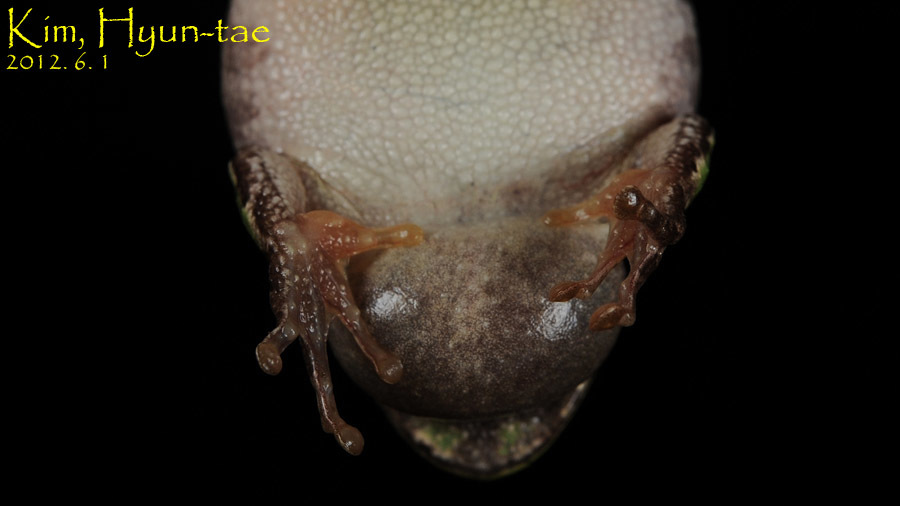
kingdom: Animalia
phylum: Chordata
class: Amphibia
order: Anura
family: Hylidae
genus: Dryophytes
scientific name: Dryophytes japonicus
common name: Japanese treefrog
